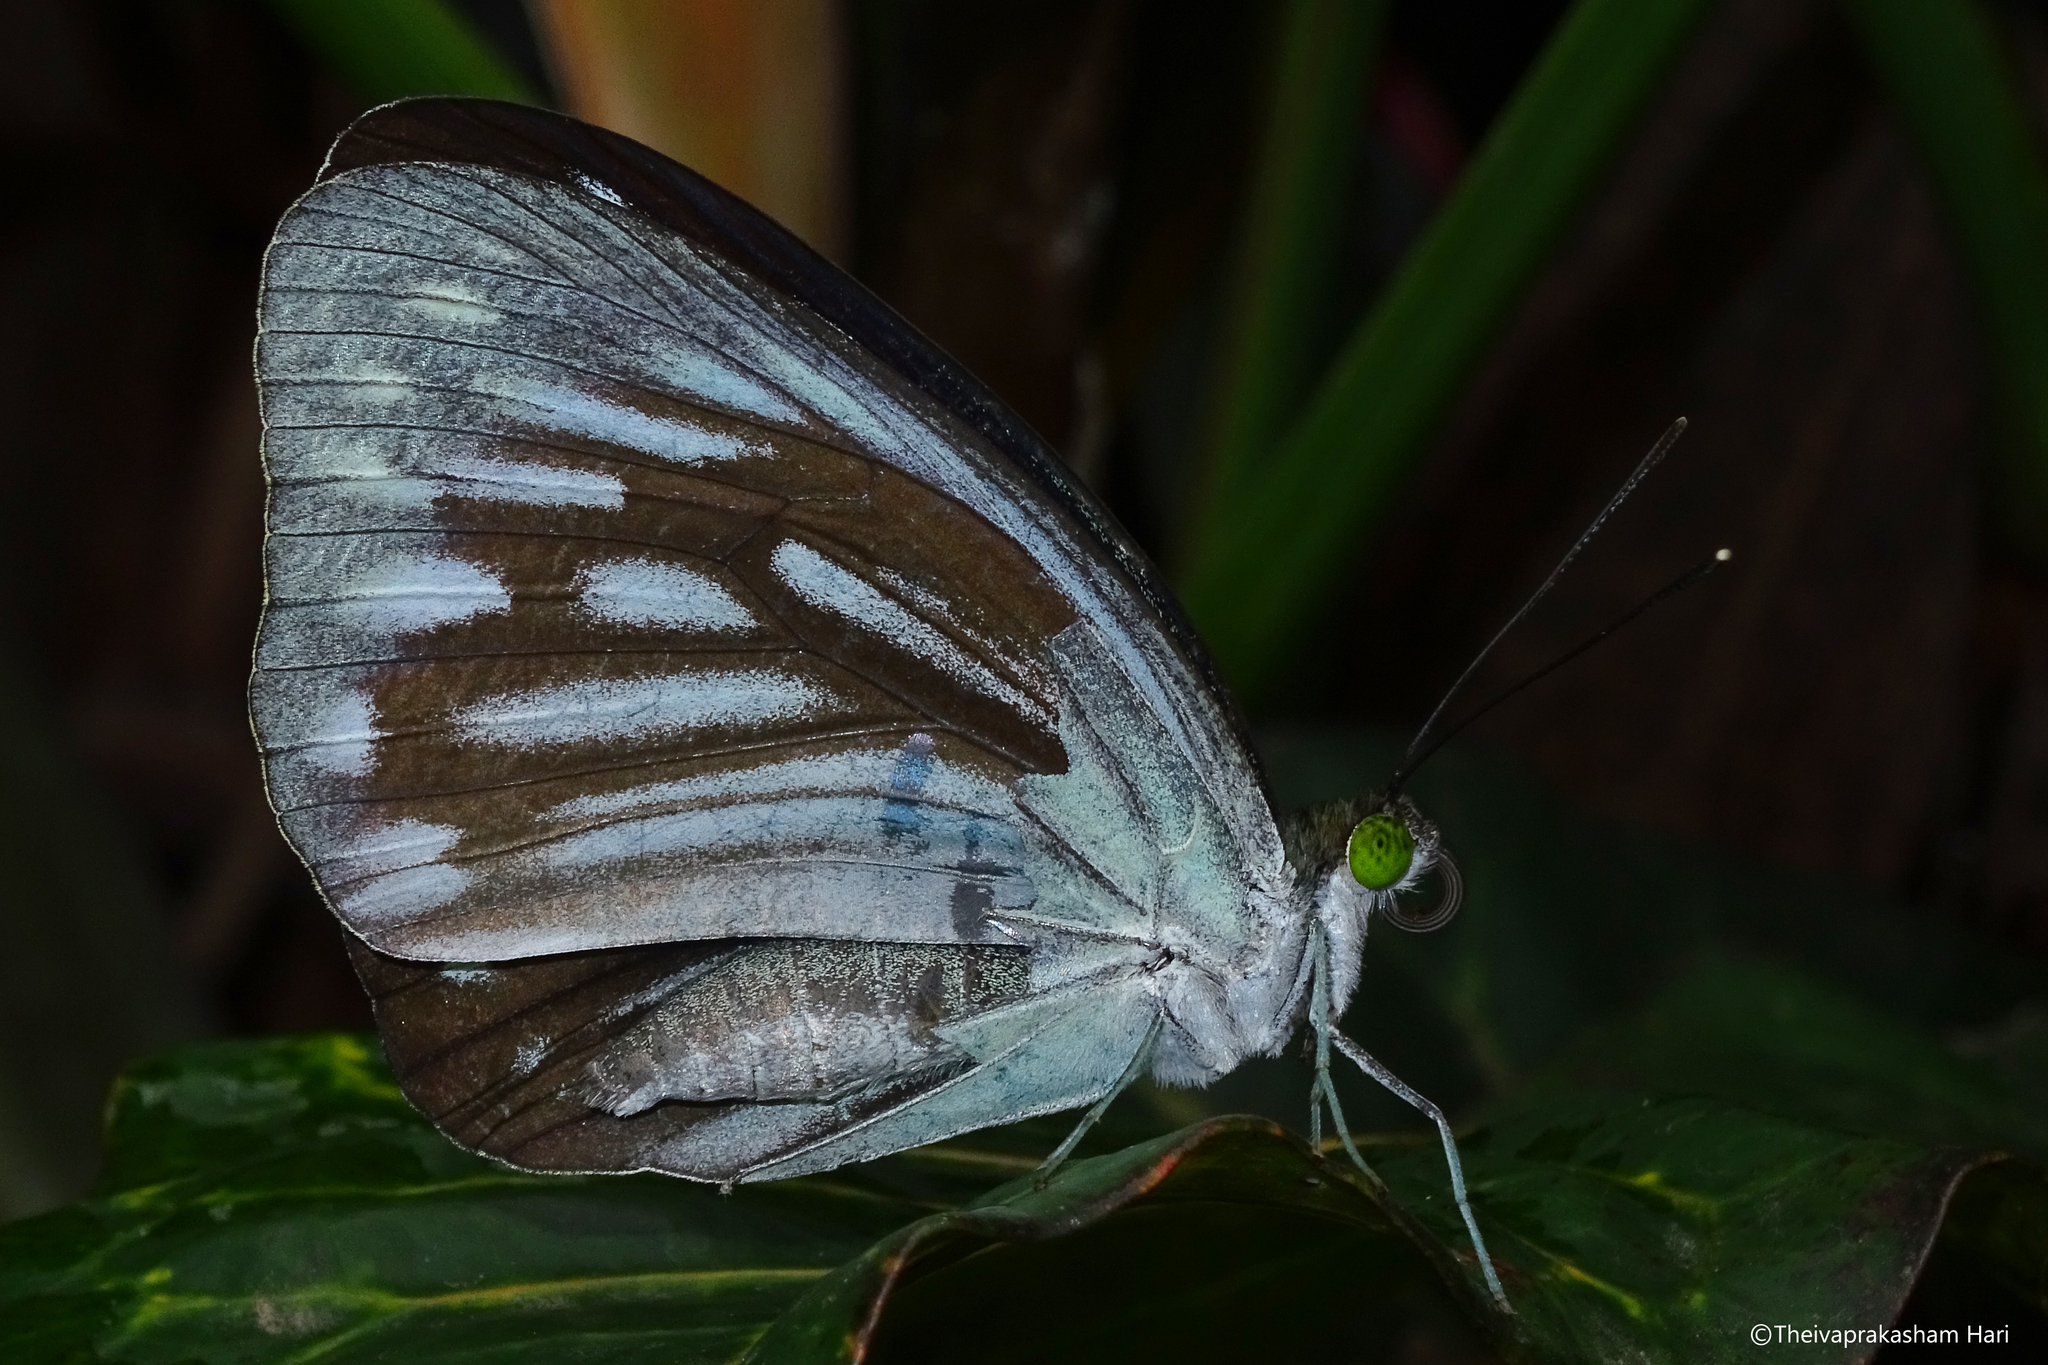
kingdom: Animalia
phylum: Arthropoda
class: Insecta
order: Lepidoptera
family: Pieridae
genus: Pareronia
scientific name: Pareronia ceylanica
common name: Dark wanderer
